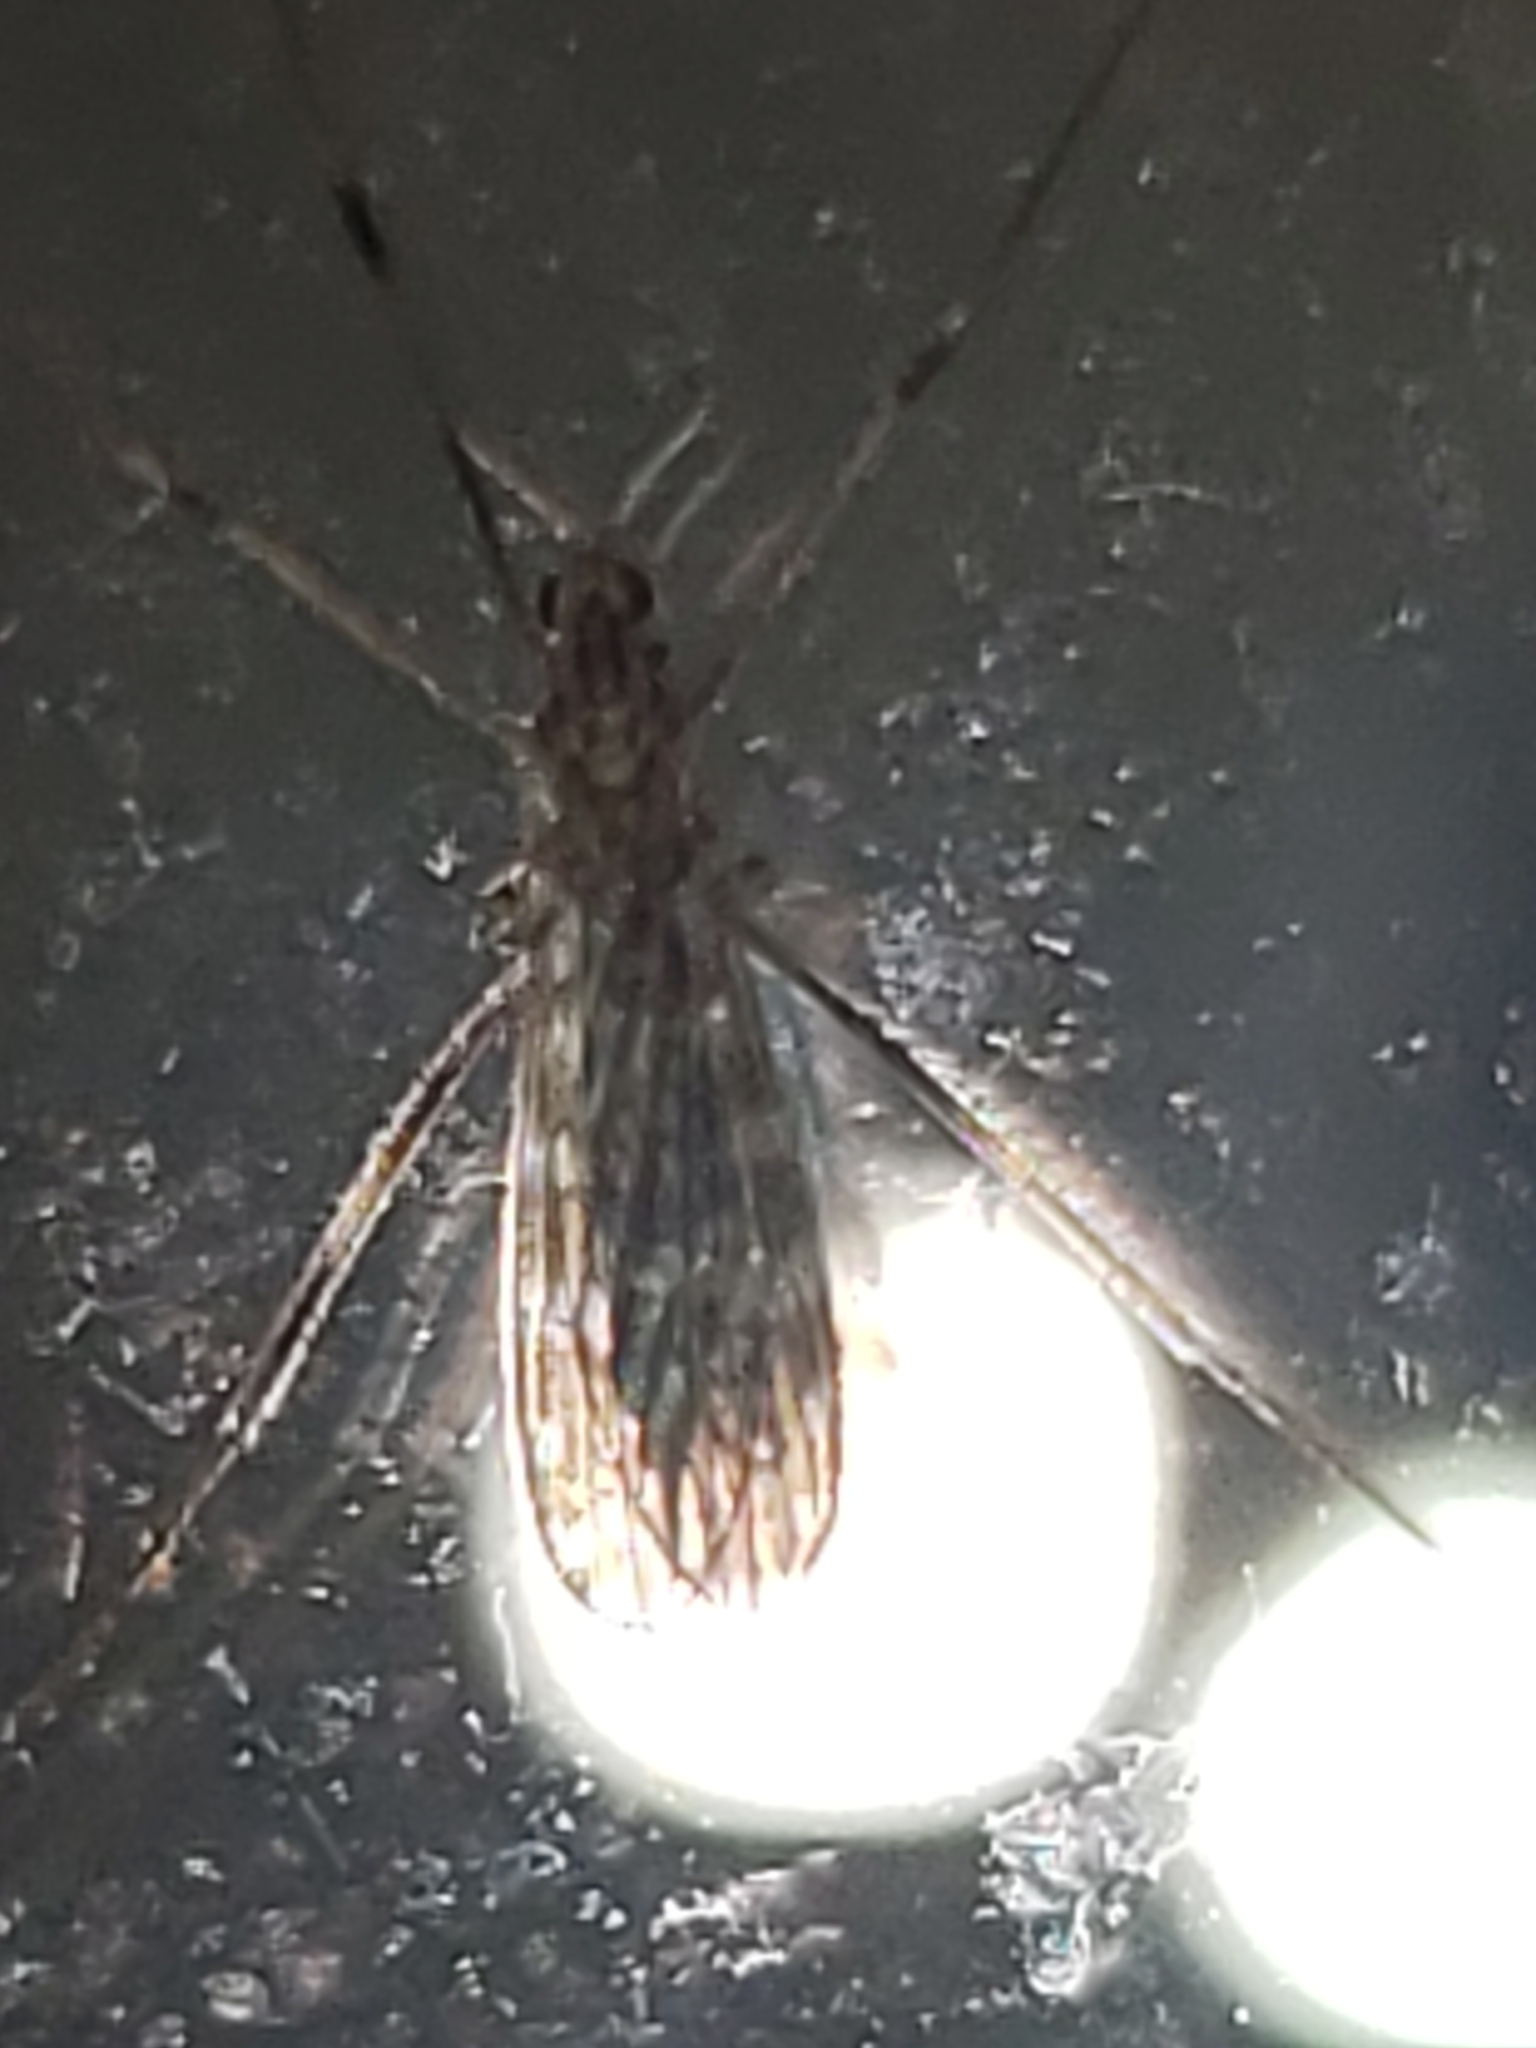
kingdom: Animalia
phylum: Arthropoda
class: Insecta
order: Diptera
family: Limoniidae
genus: Erioptera
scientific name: Erioptera caliptera
